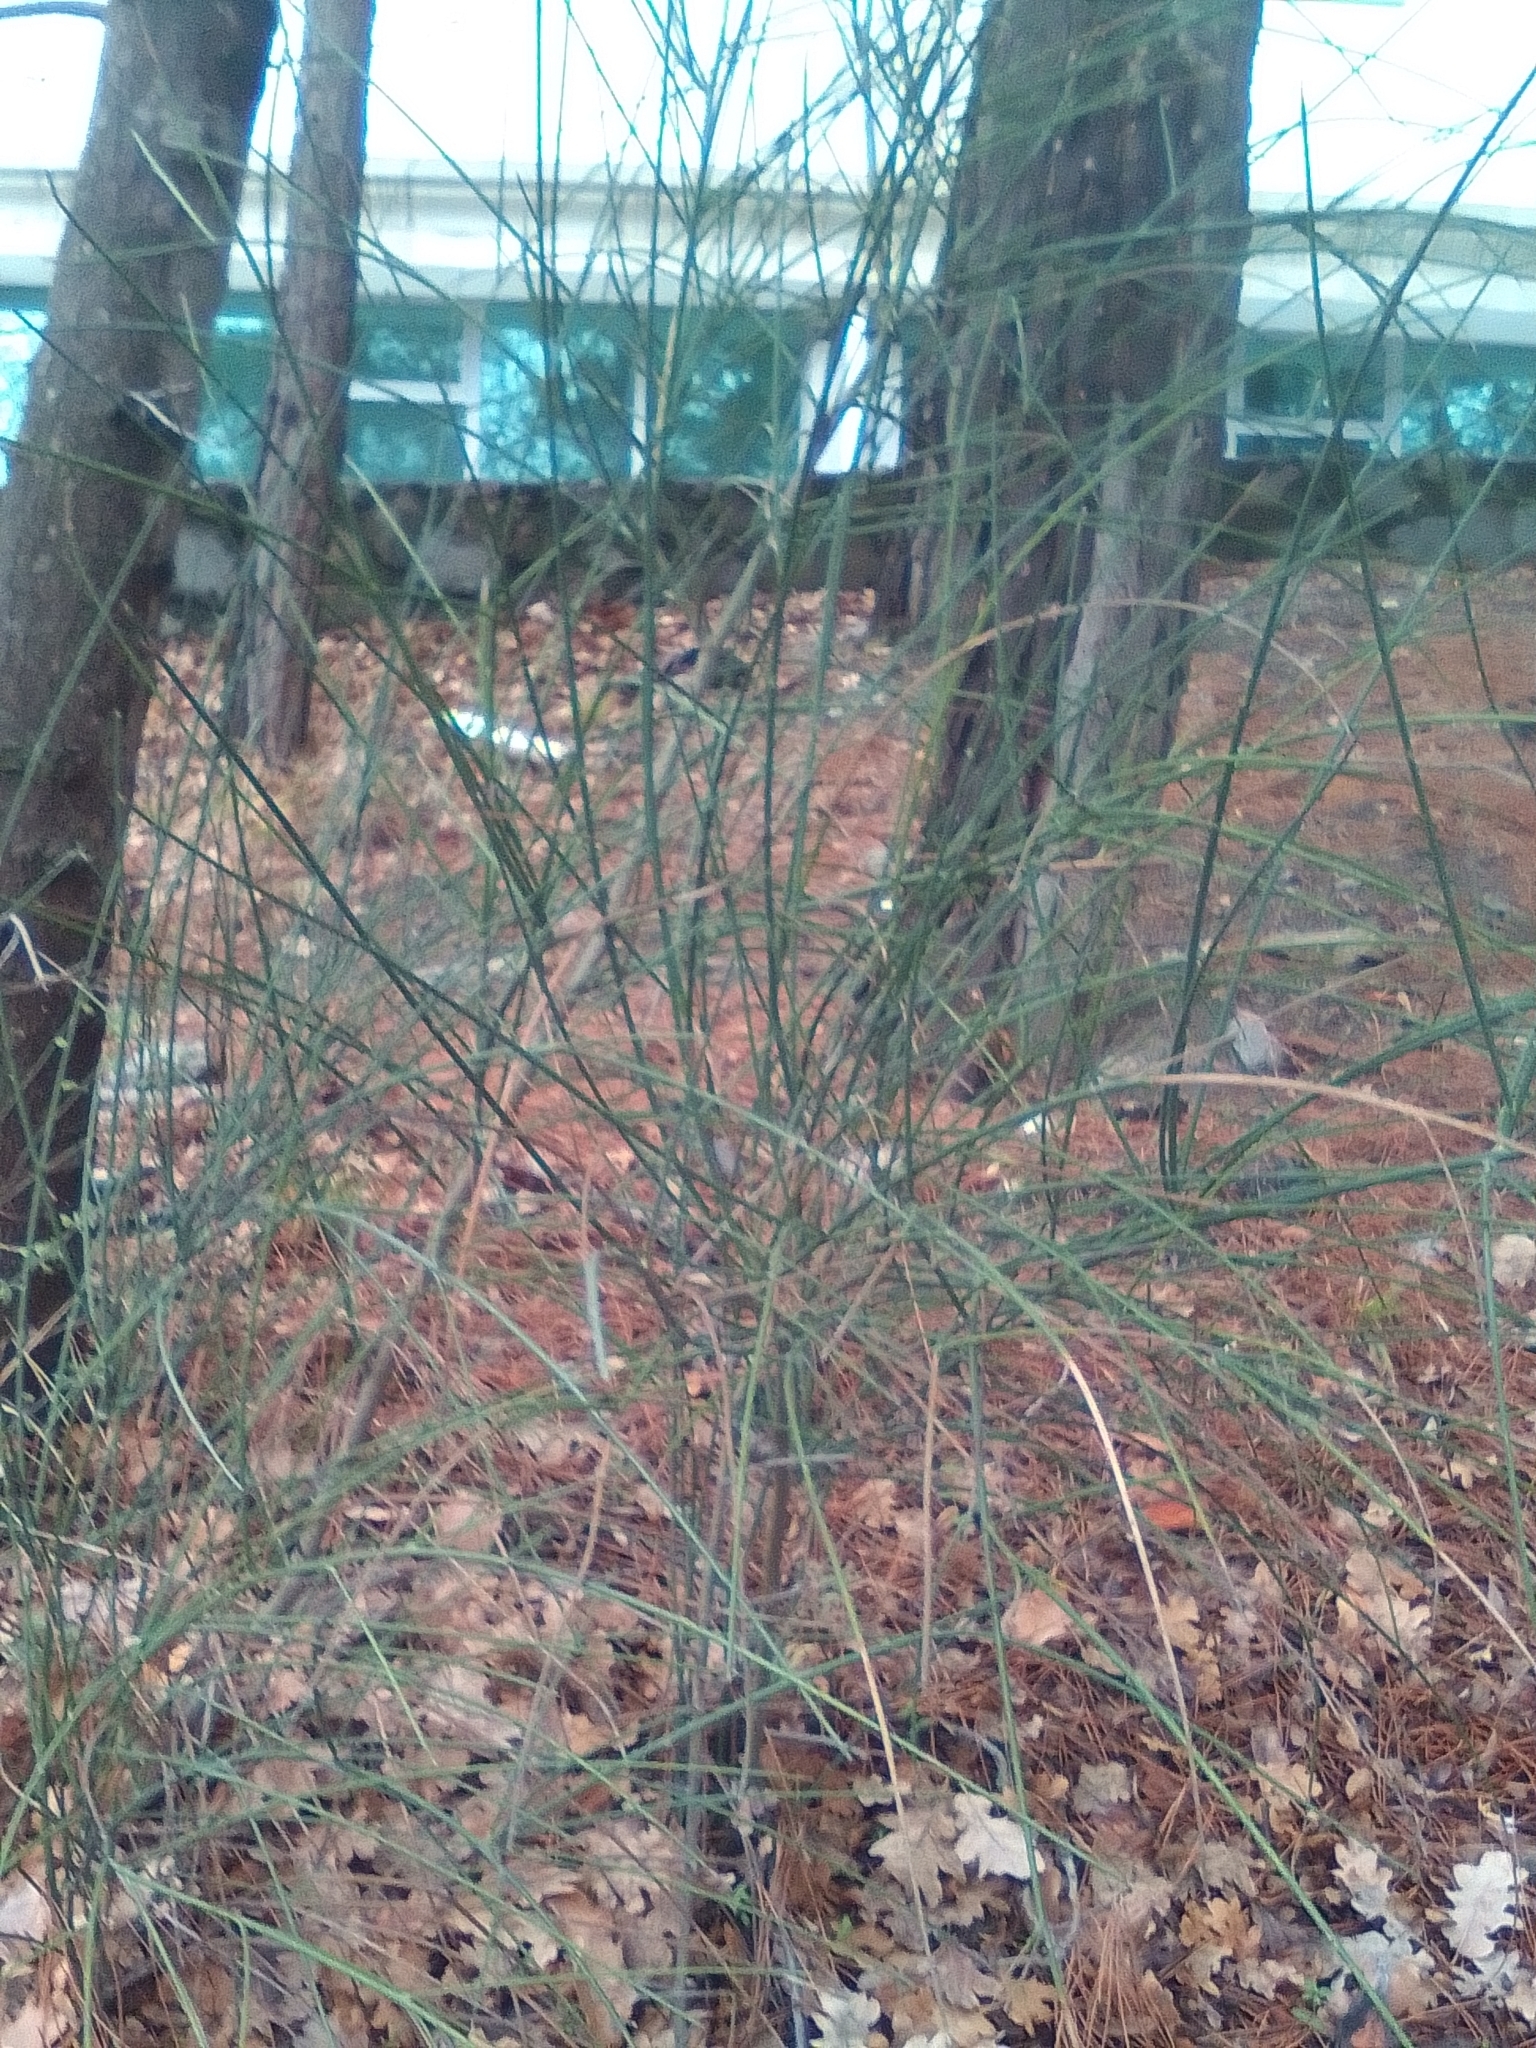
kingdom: Plantae
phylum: Tracheophyta
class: Magnoliopsida
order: Fabales
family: Fabaceae
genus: Spartium
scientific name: Spartium junceum
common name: Spanish broom
